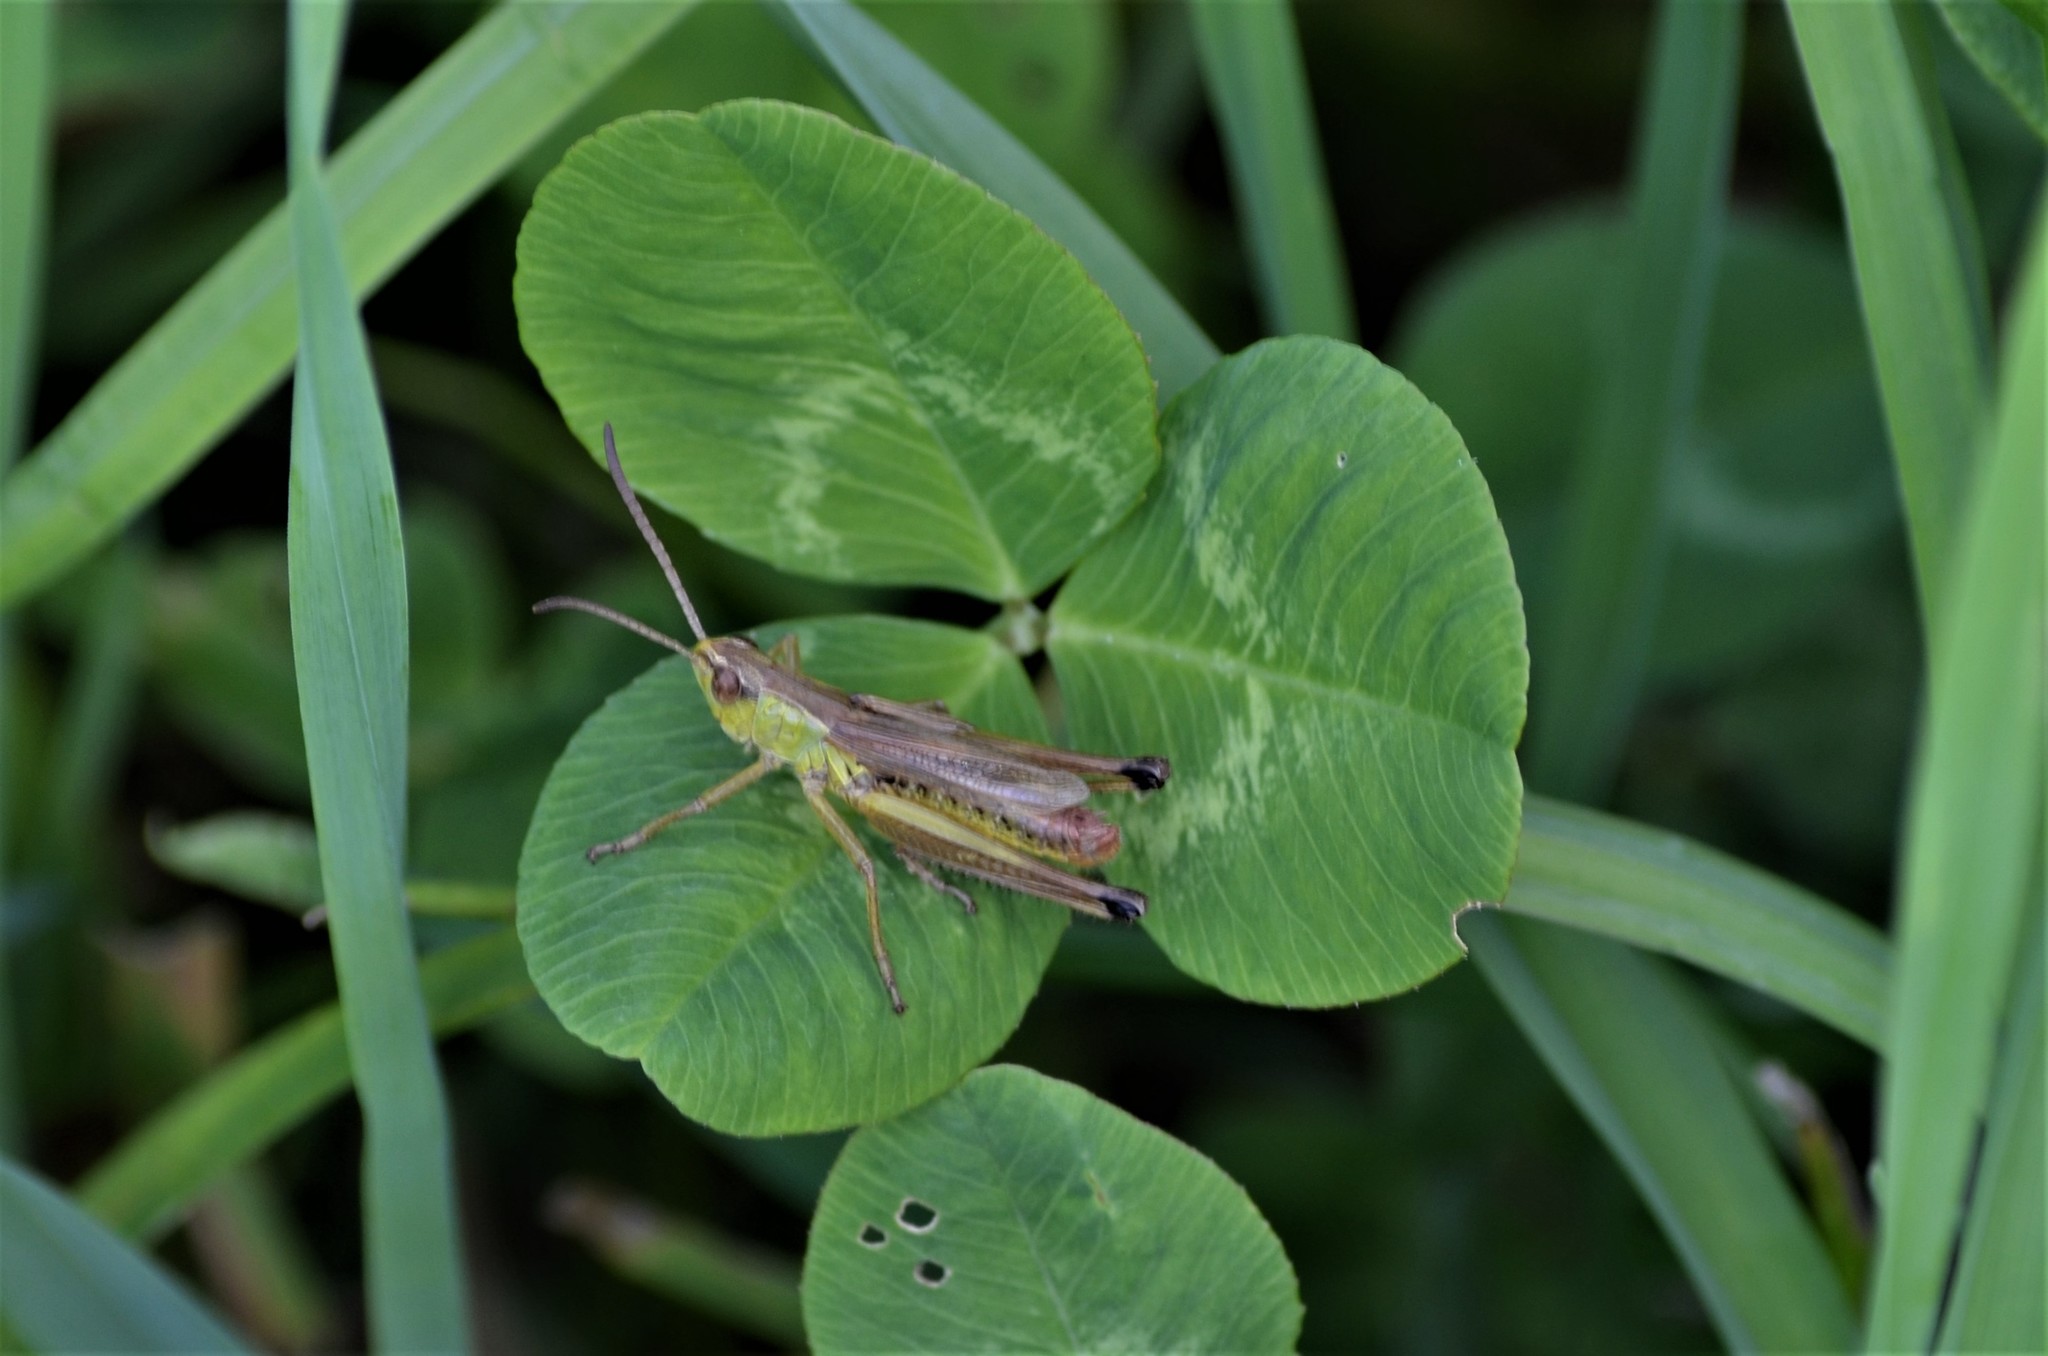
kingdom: Animalia
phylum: Arthropoda
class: Insecta
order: Orthoptera
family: Acrididae
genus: Pseudochorthippus
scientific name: Pseudochorthippus parallelus
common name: Meadow grasshopper
